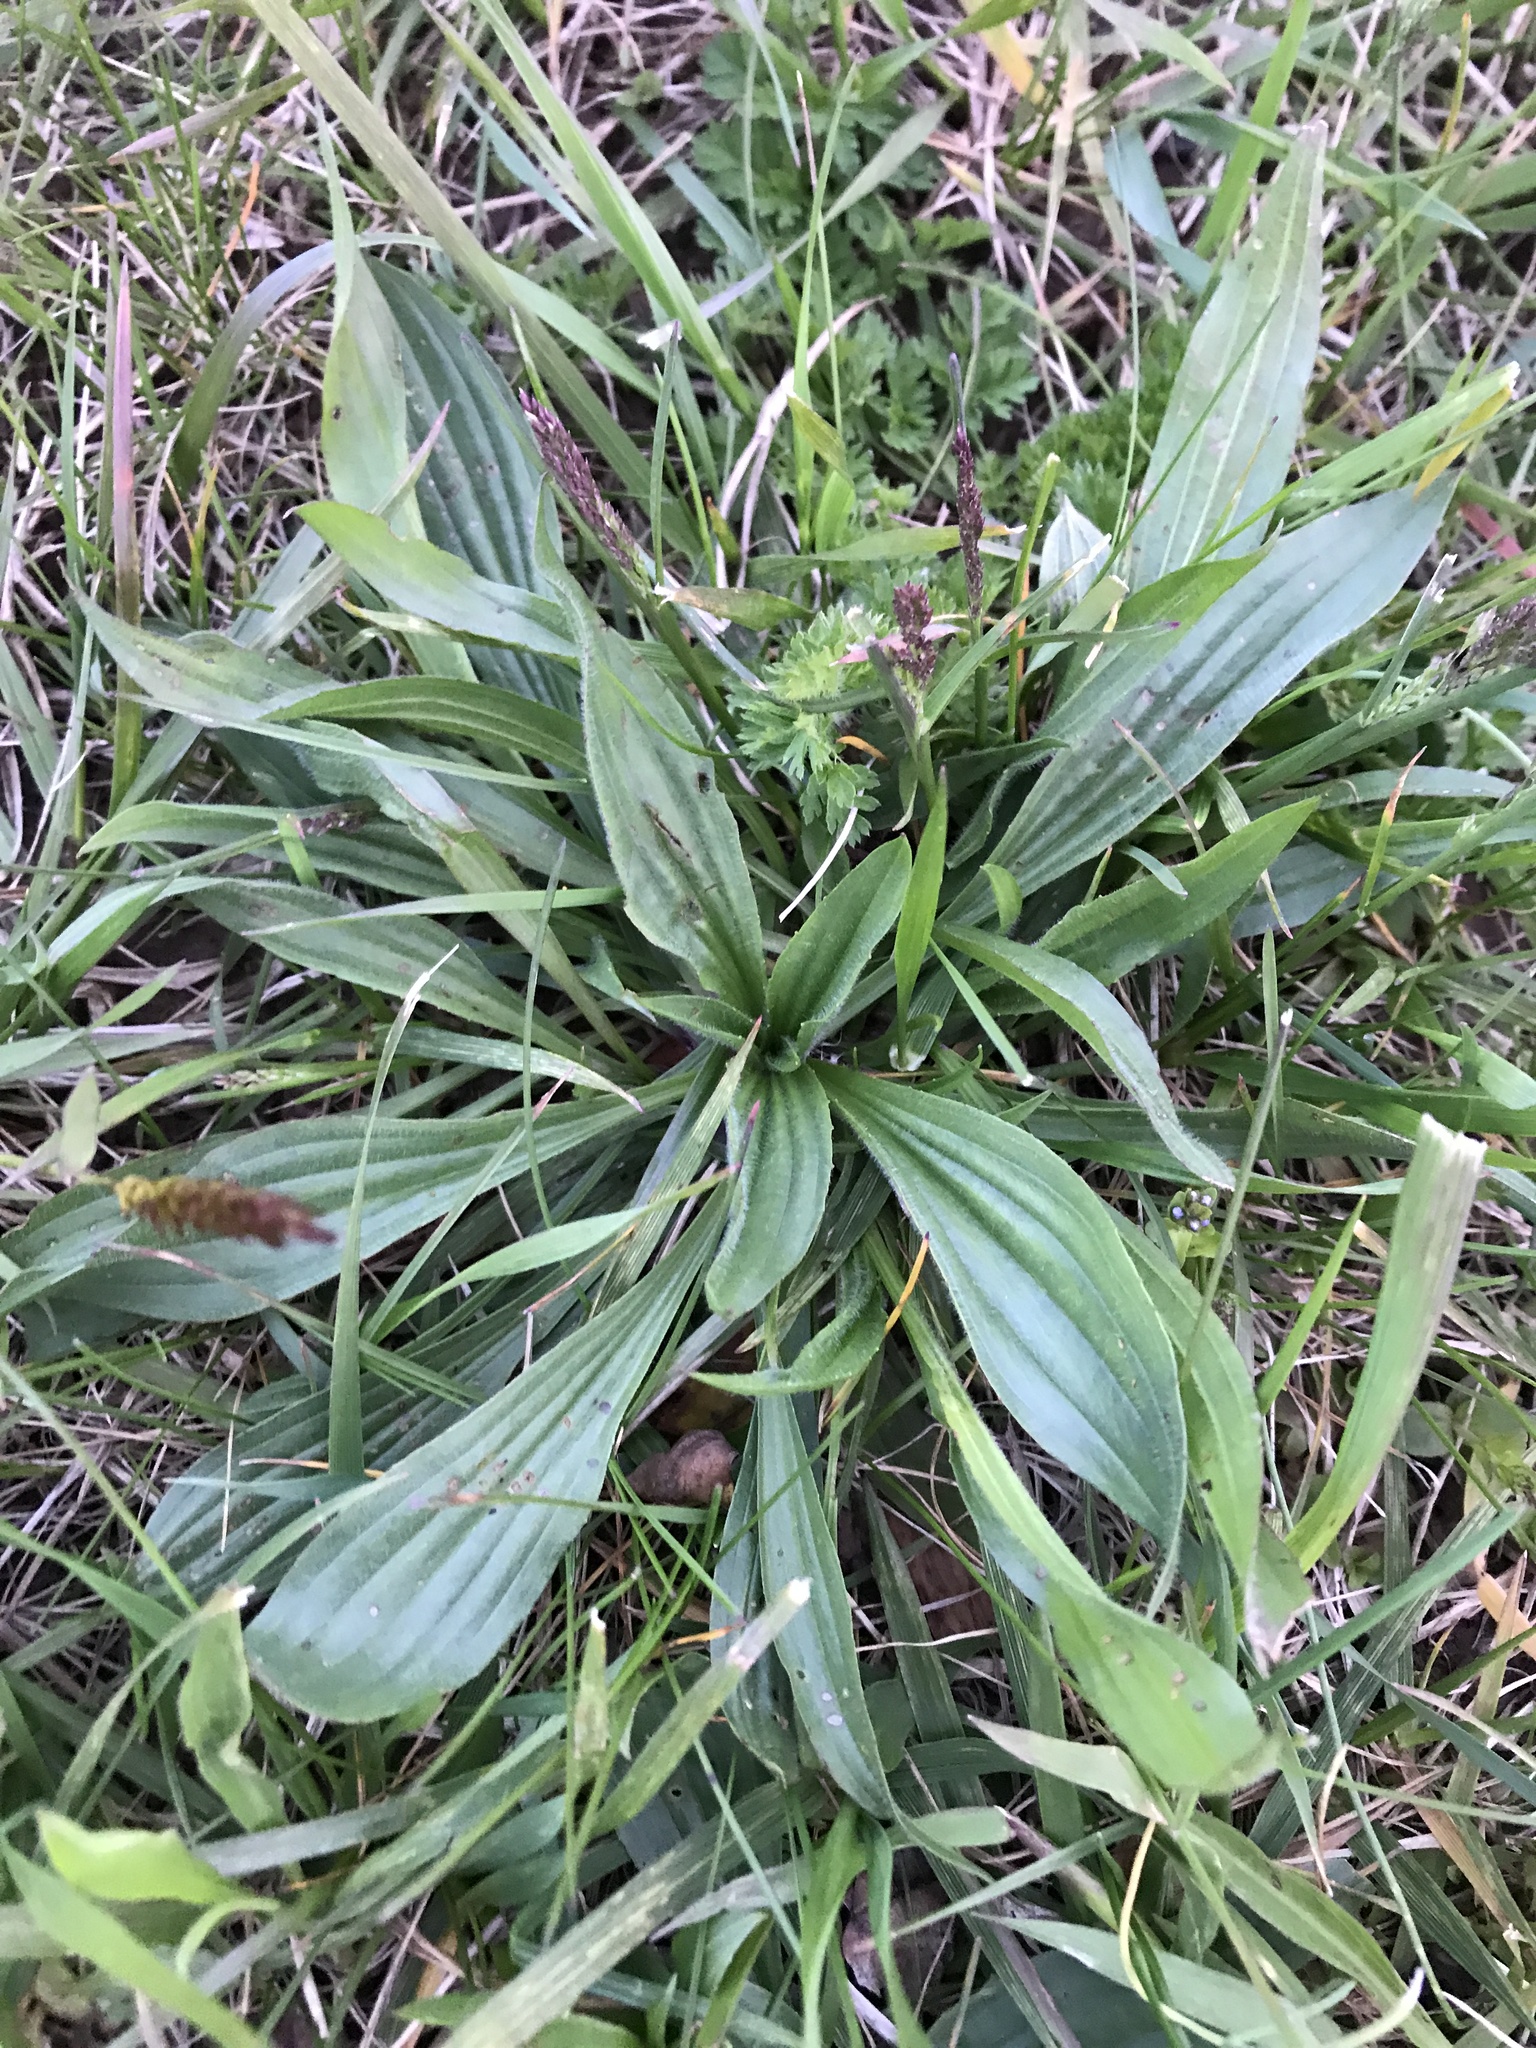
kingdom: Plantae
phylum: Tracheophyta
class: Magnoliopsida
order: Lamiales
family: Plantaginaceae
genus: Plantago
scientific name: Plantago lanceolata
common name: Ribwort plantain
